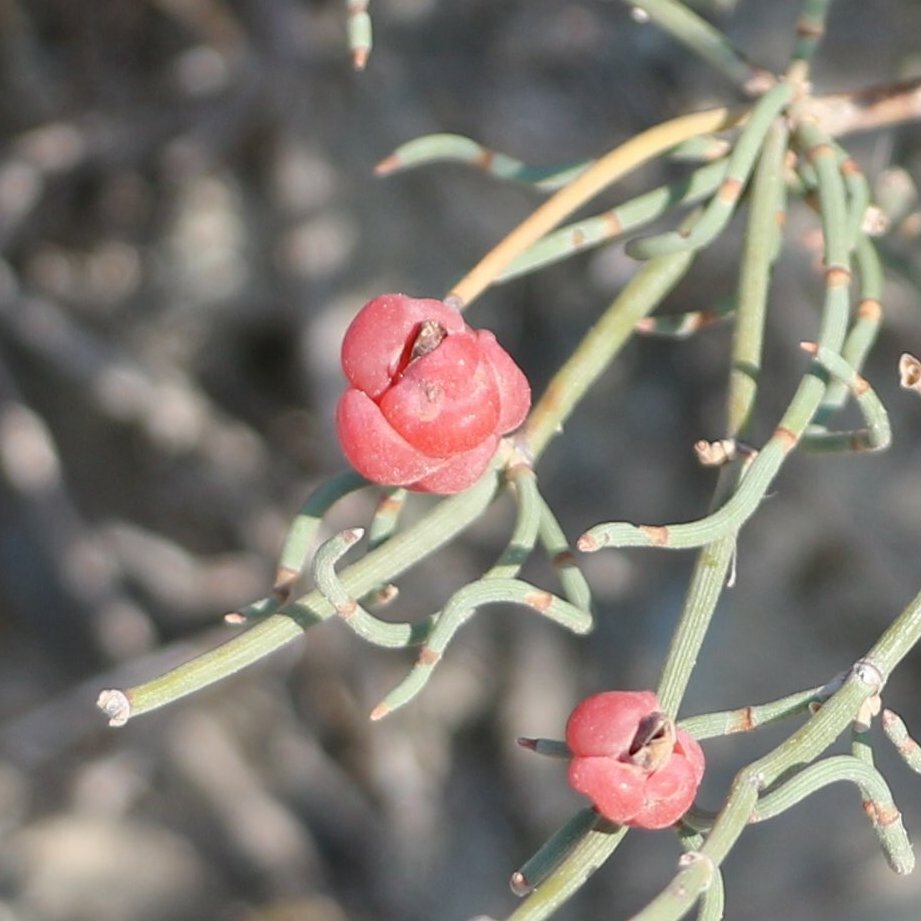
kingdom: Plantae
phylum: Tracheophyta
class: Gnetopsida
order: Ephedrales
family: Ephedraceae
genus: Ephedra
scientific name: Ephedra distachya
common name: Sea grape
